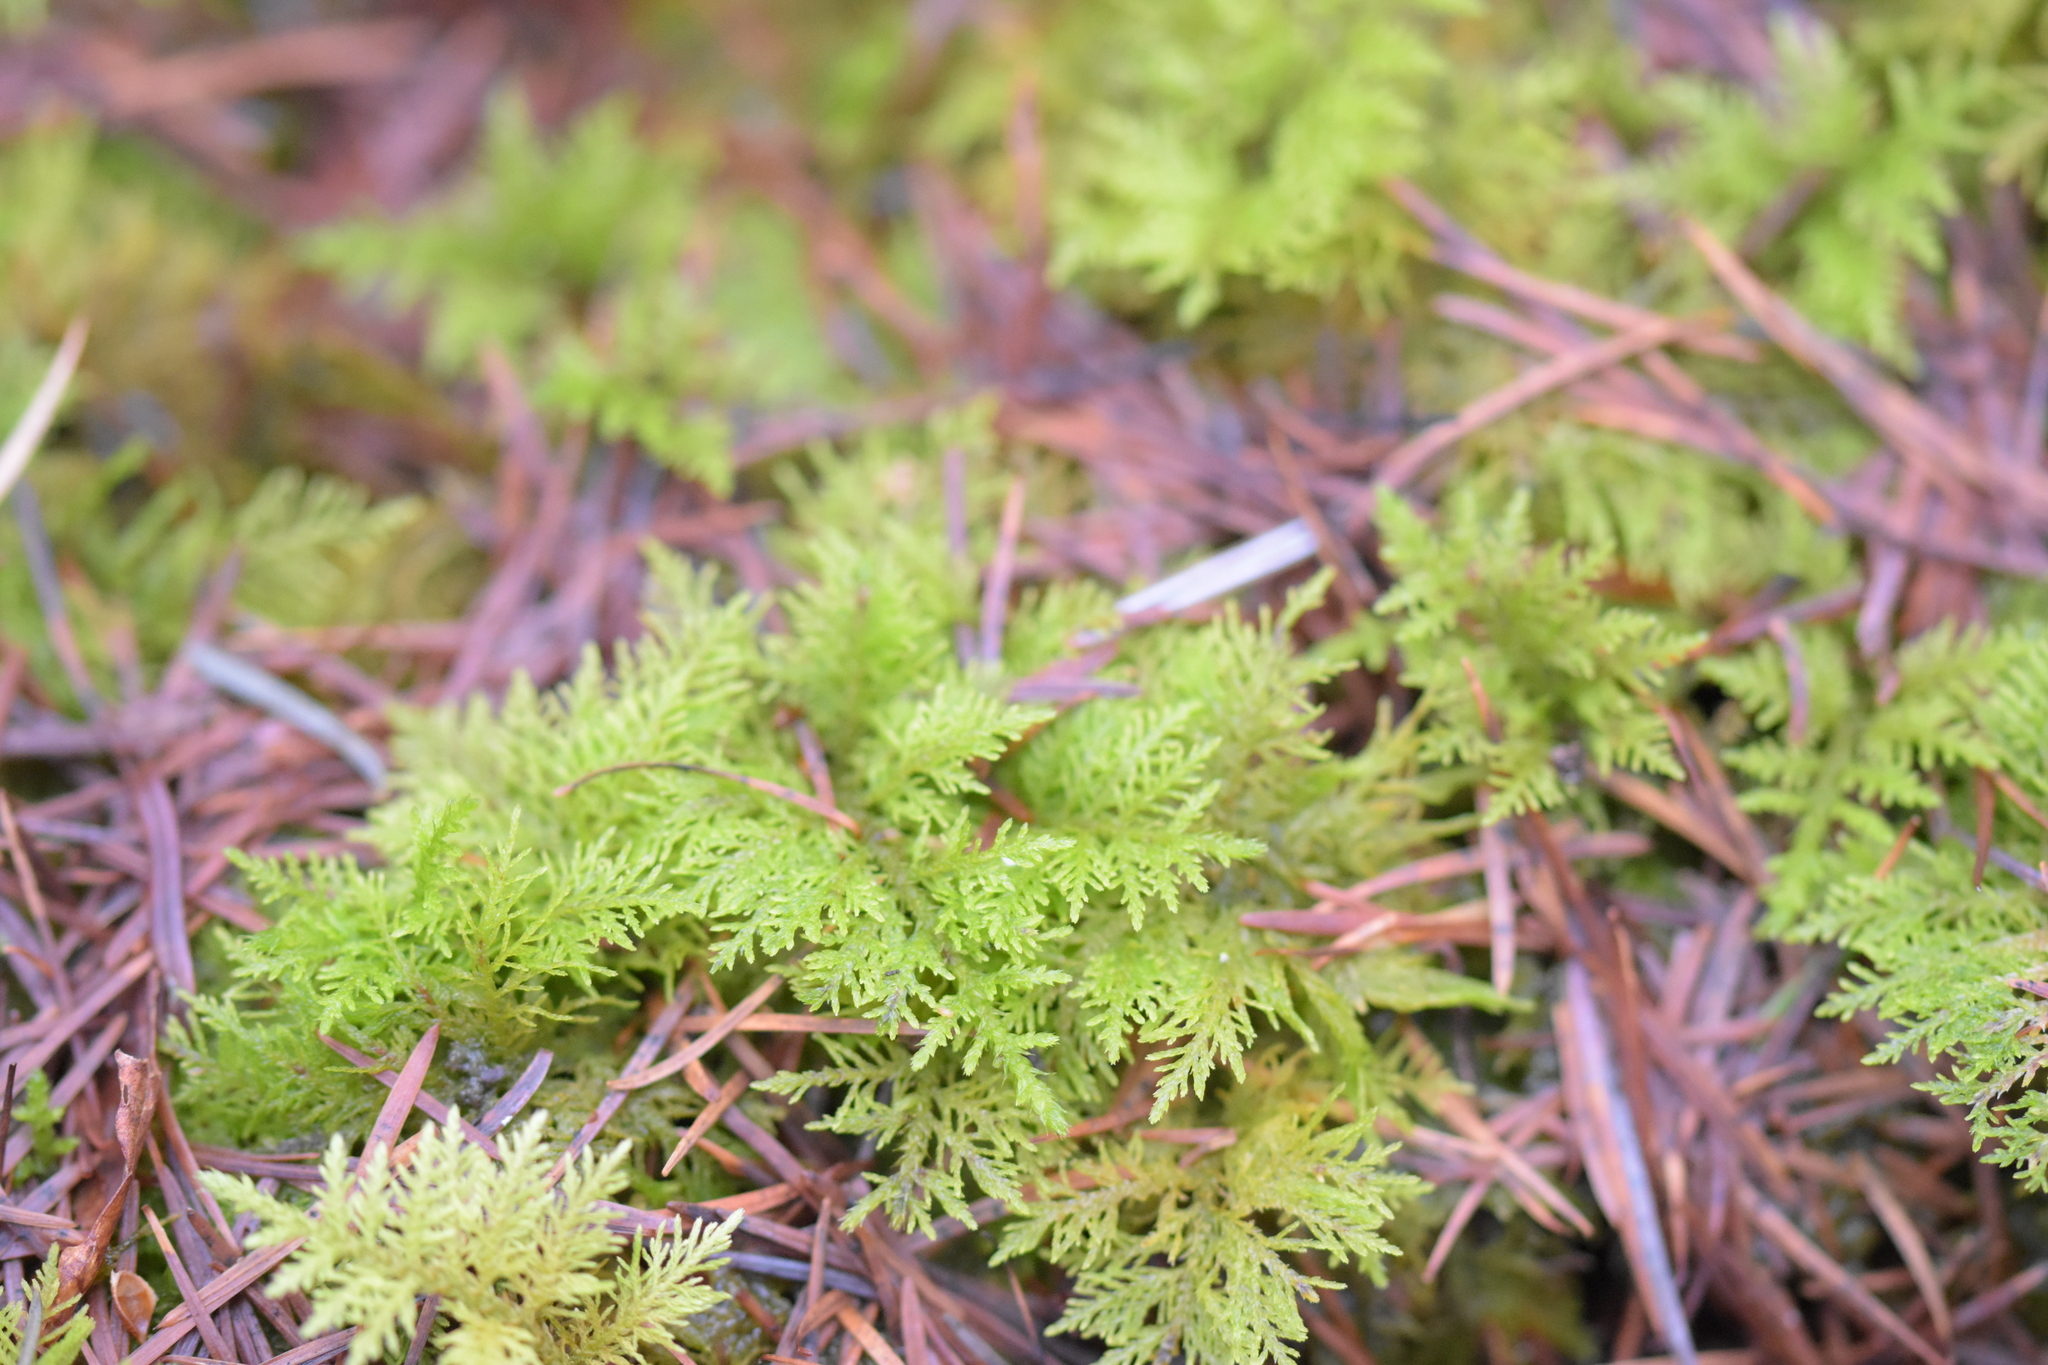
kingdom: Plantae
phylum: Bryophyta
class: Bryopsida
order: Hypnales
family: Thuidiaceae
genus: Thuidium
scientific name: Thuidium tamariscinum
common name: Common tamarisk-moss
